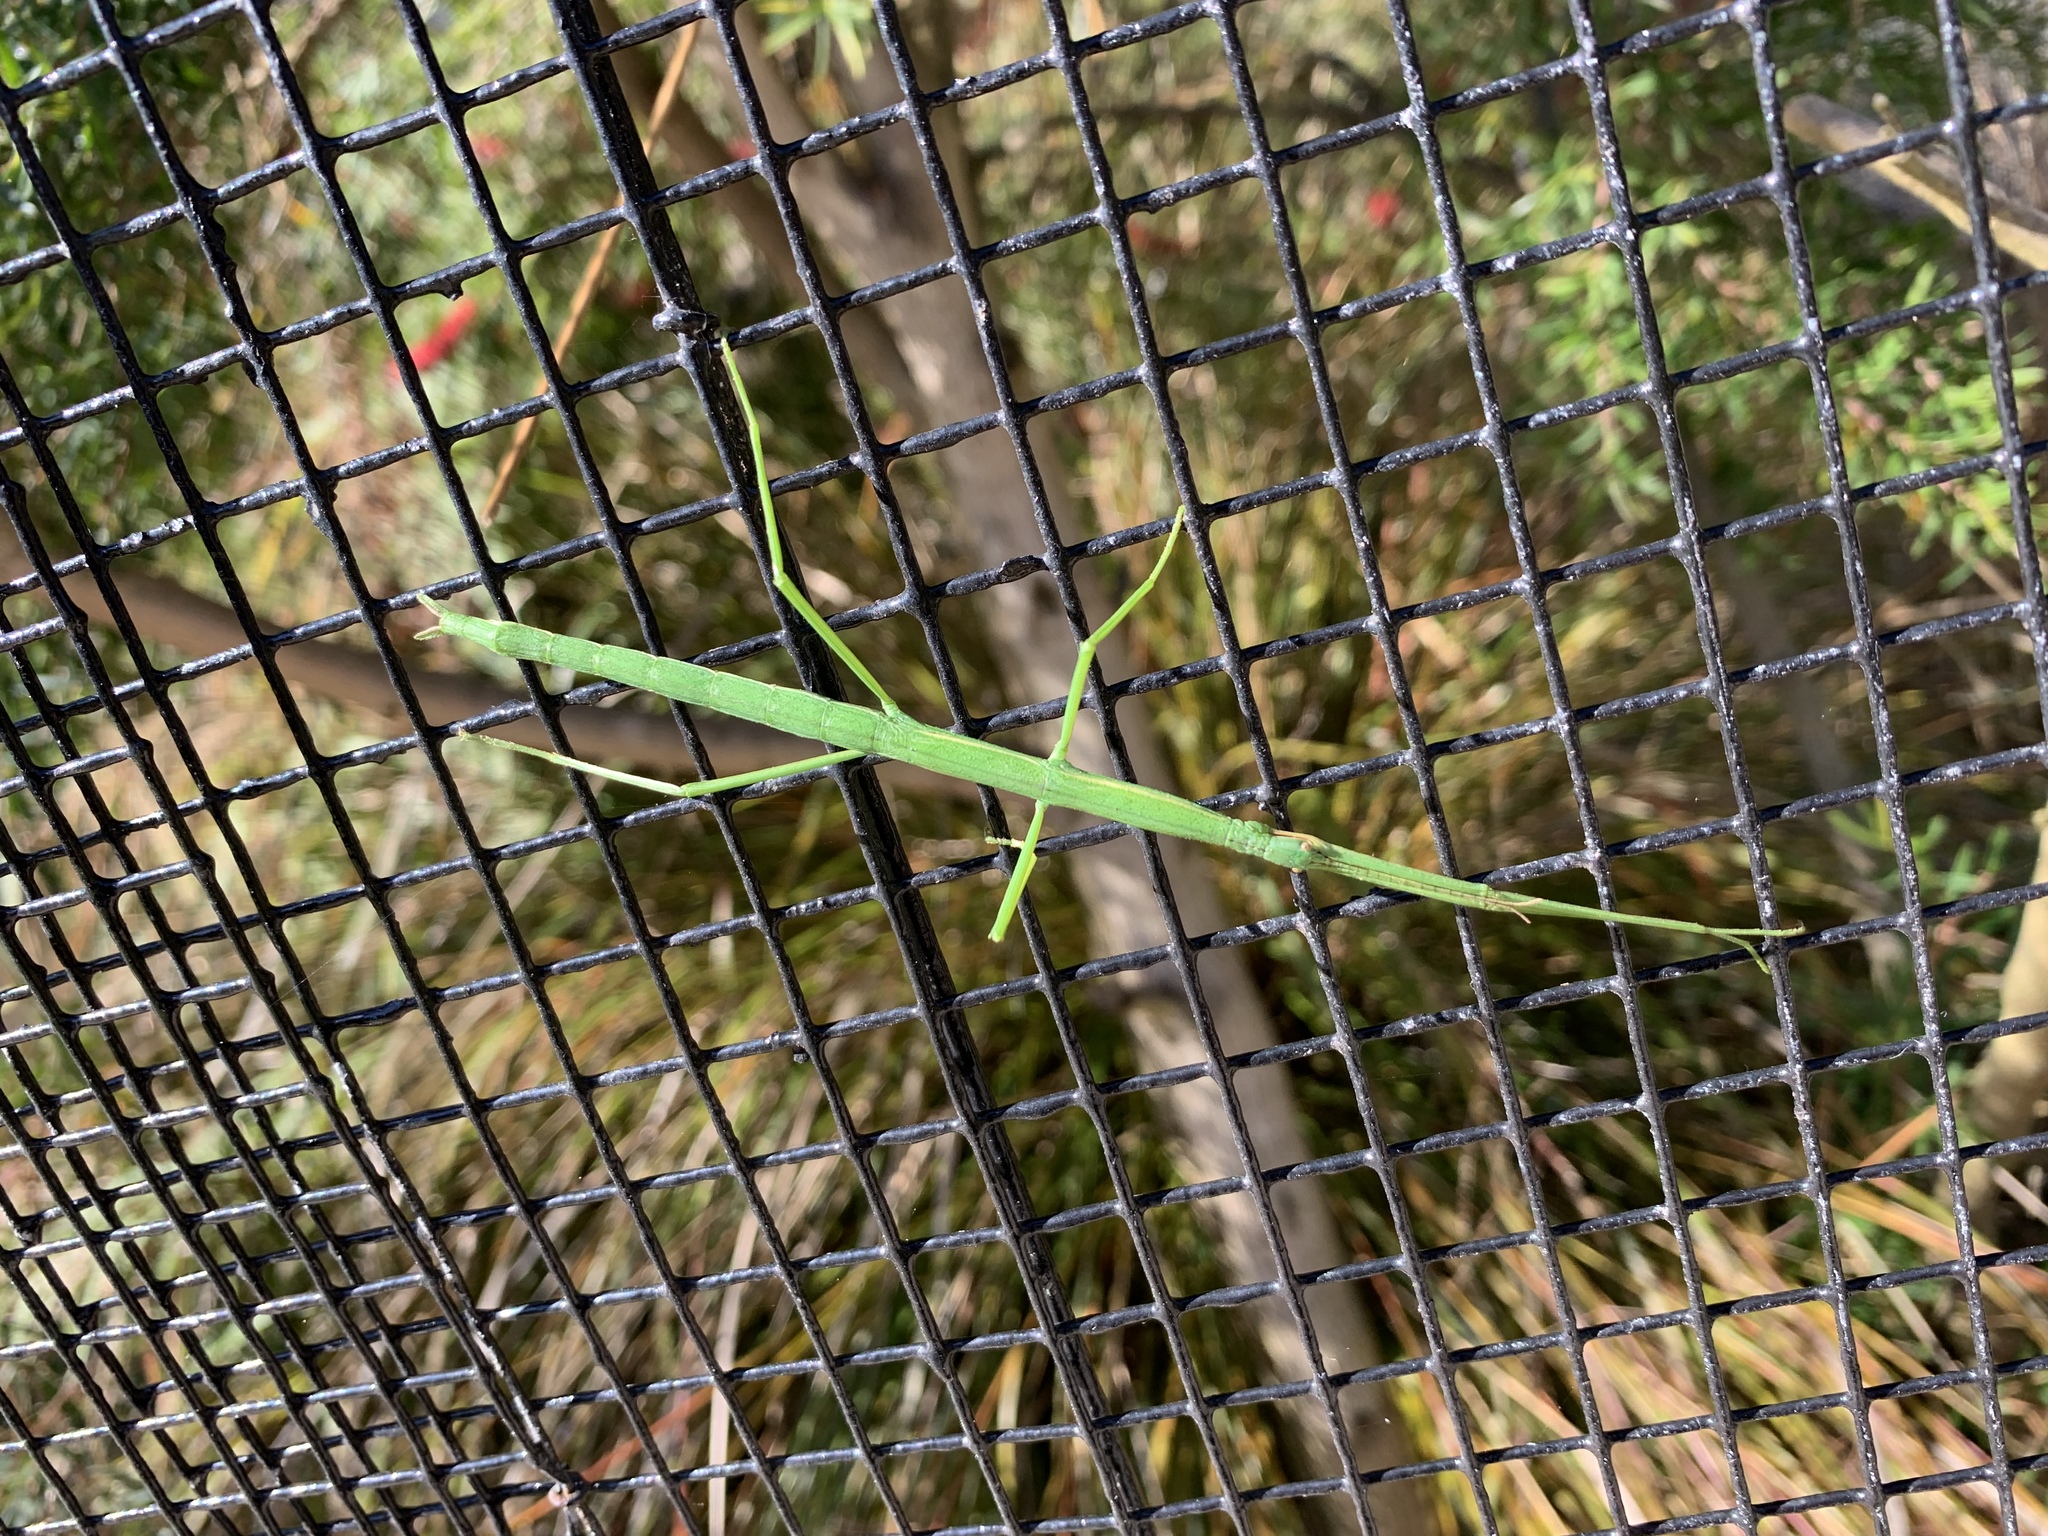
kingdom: Animalia
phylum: Arthropoda
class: Insecta
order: Phasmida
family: Phasmatidae
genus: Clitarchus
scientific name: Clitarchus hookeri
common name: Smooth stick insect
